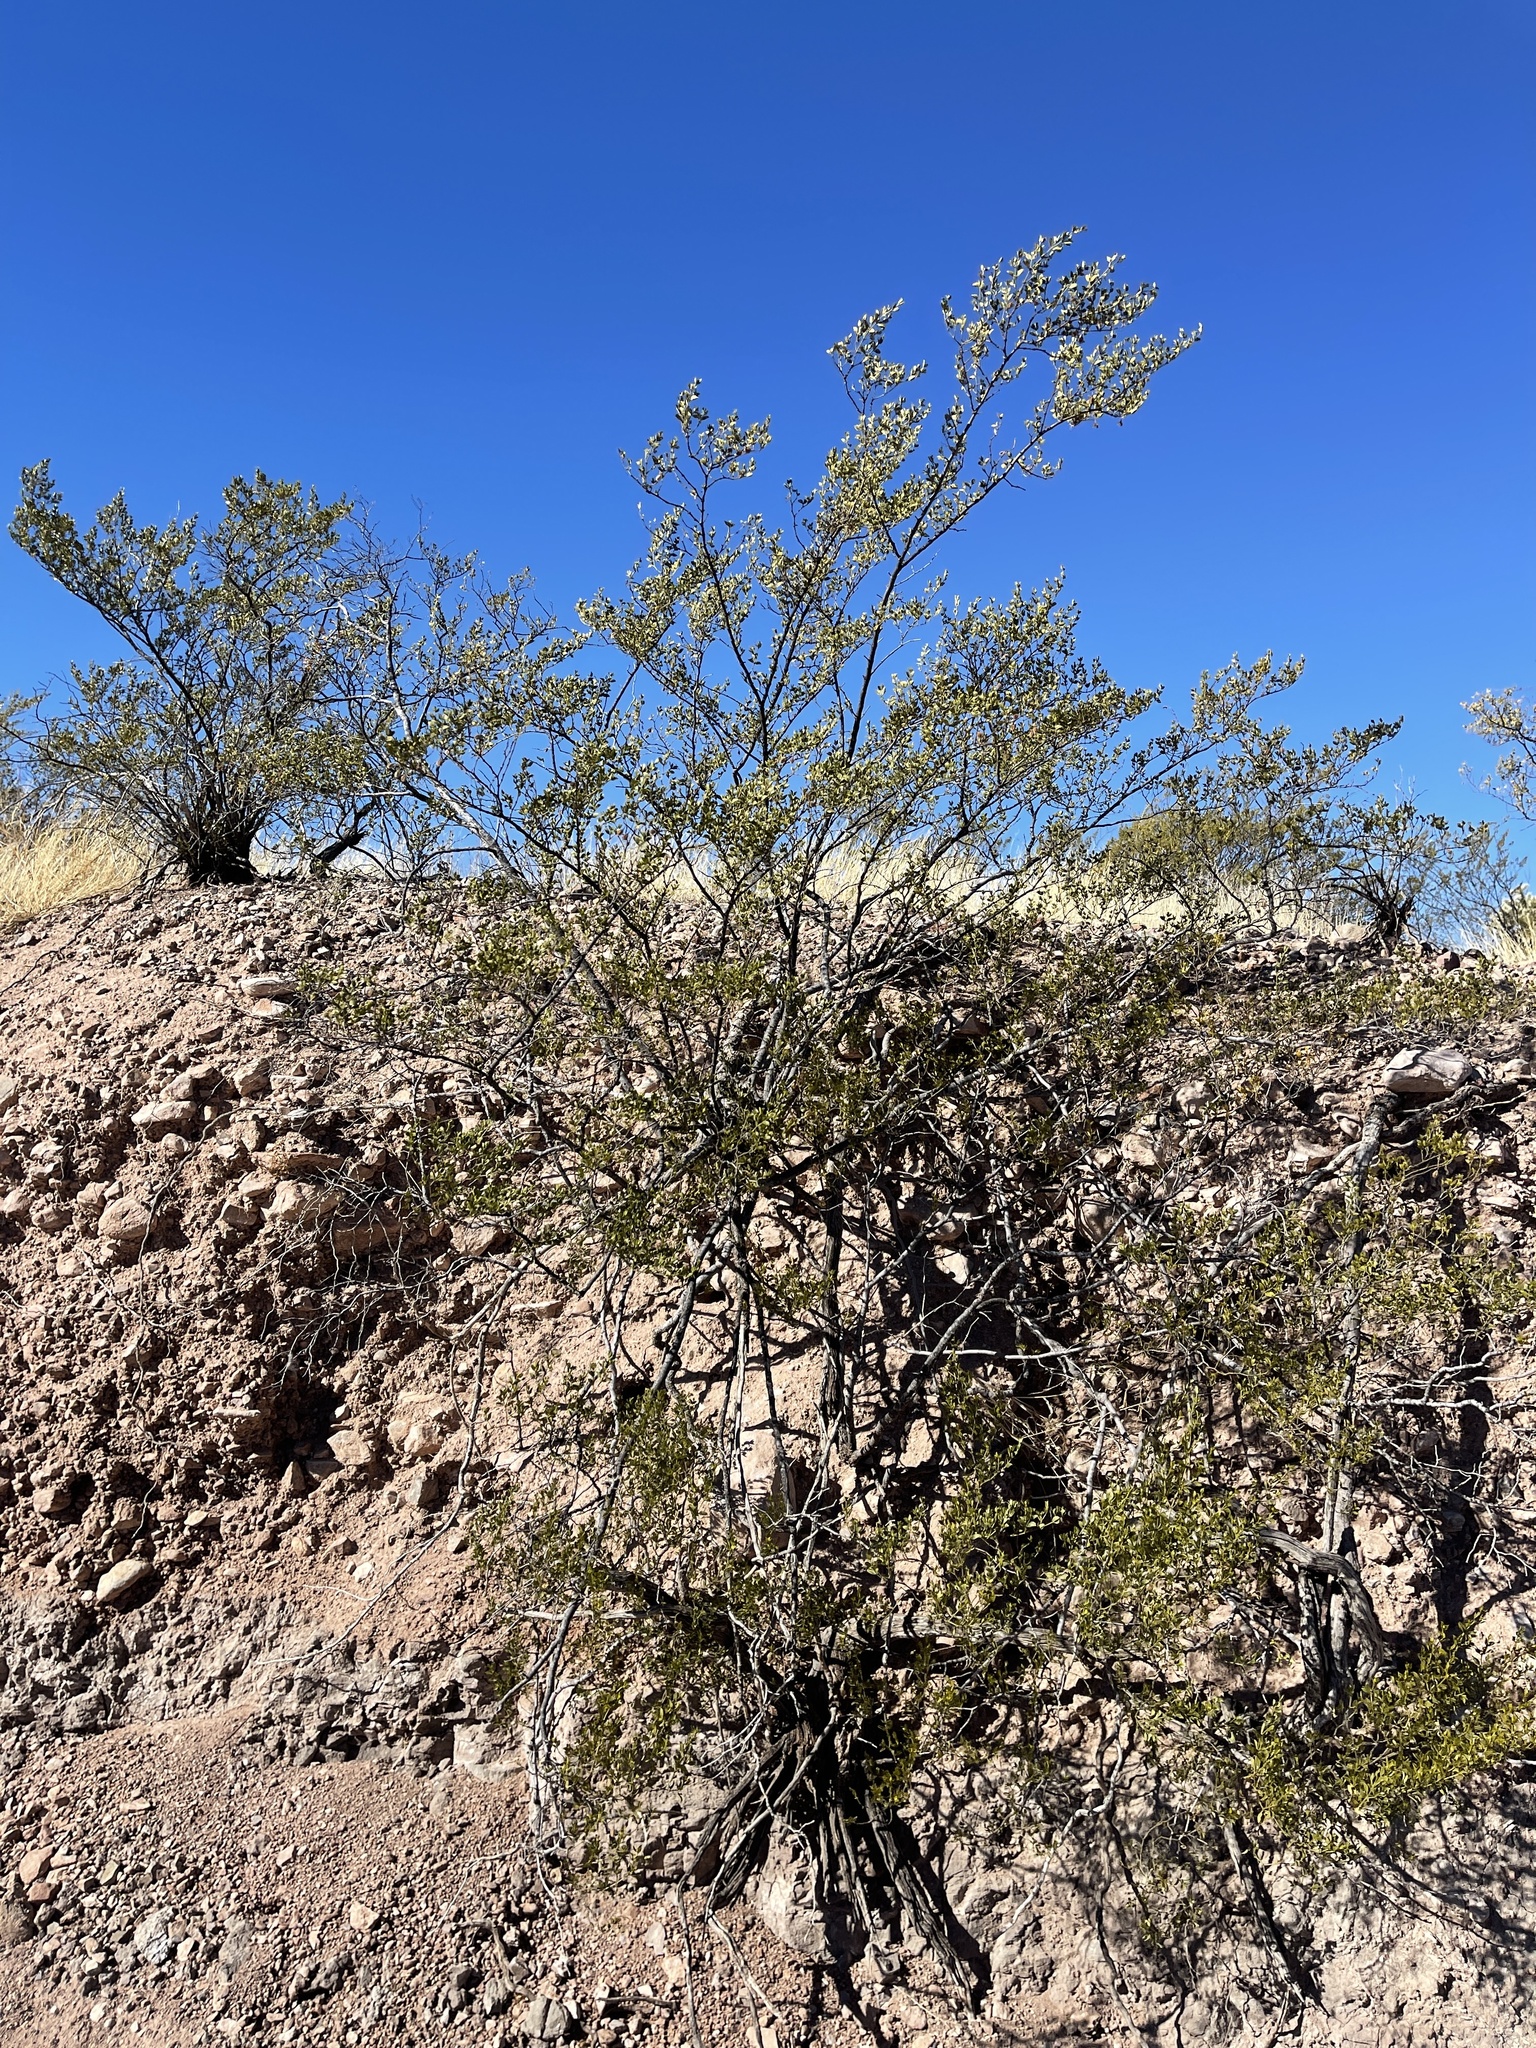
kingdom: Plantae
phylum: Tracheophyta
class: Magnoliopsida
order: Zygophyllales
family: Zygophyllaceae
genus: Larrea
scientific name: Larrea tridentata
